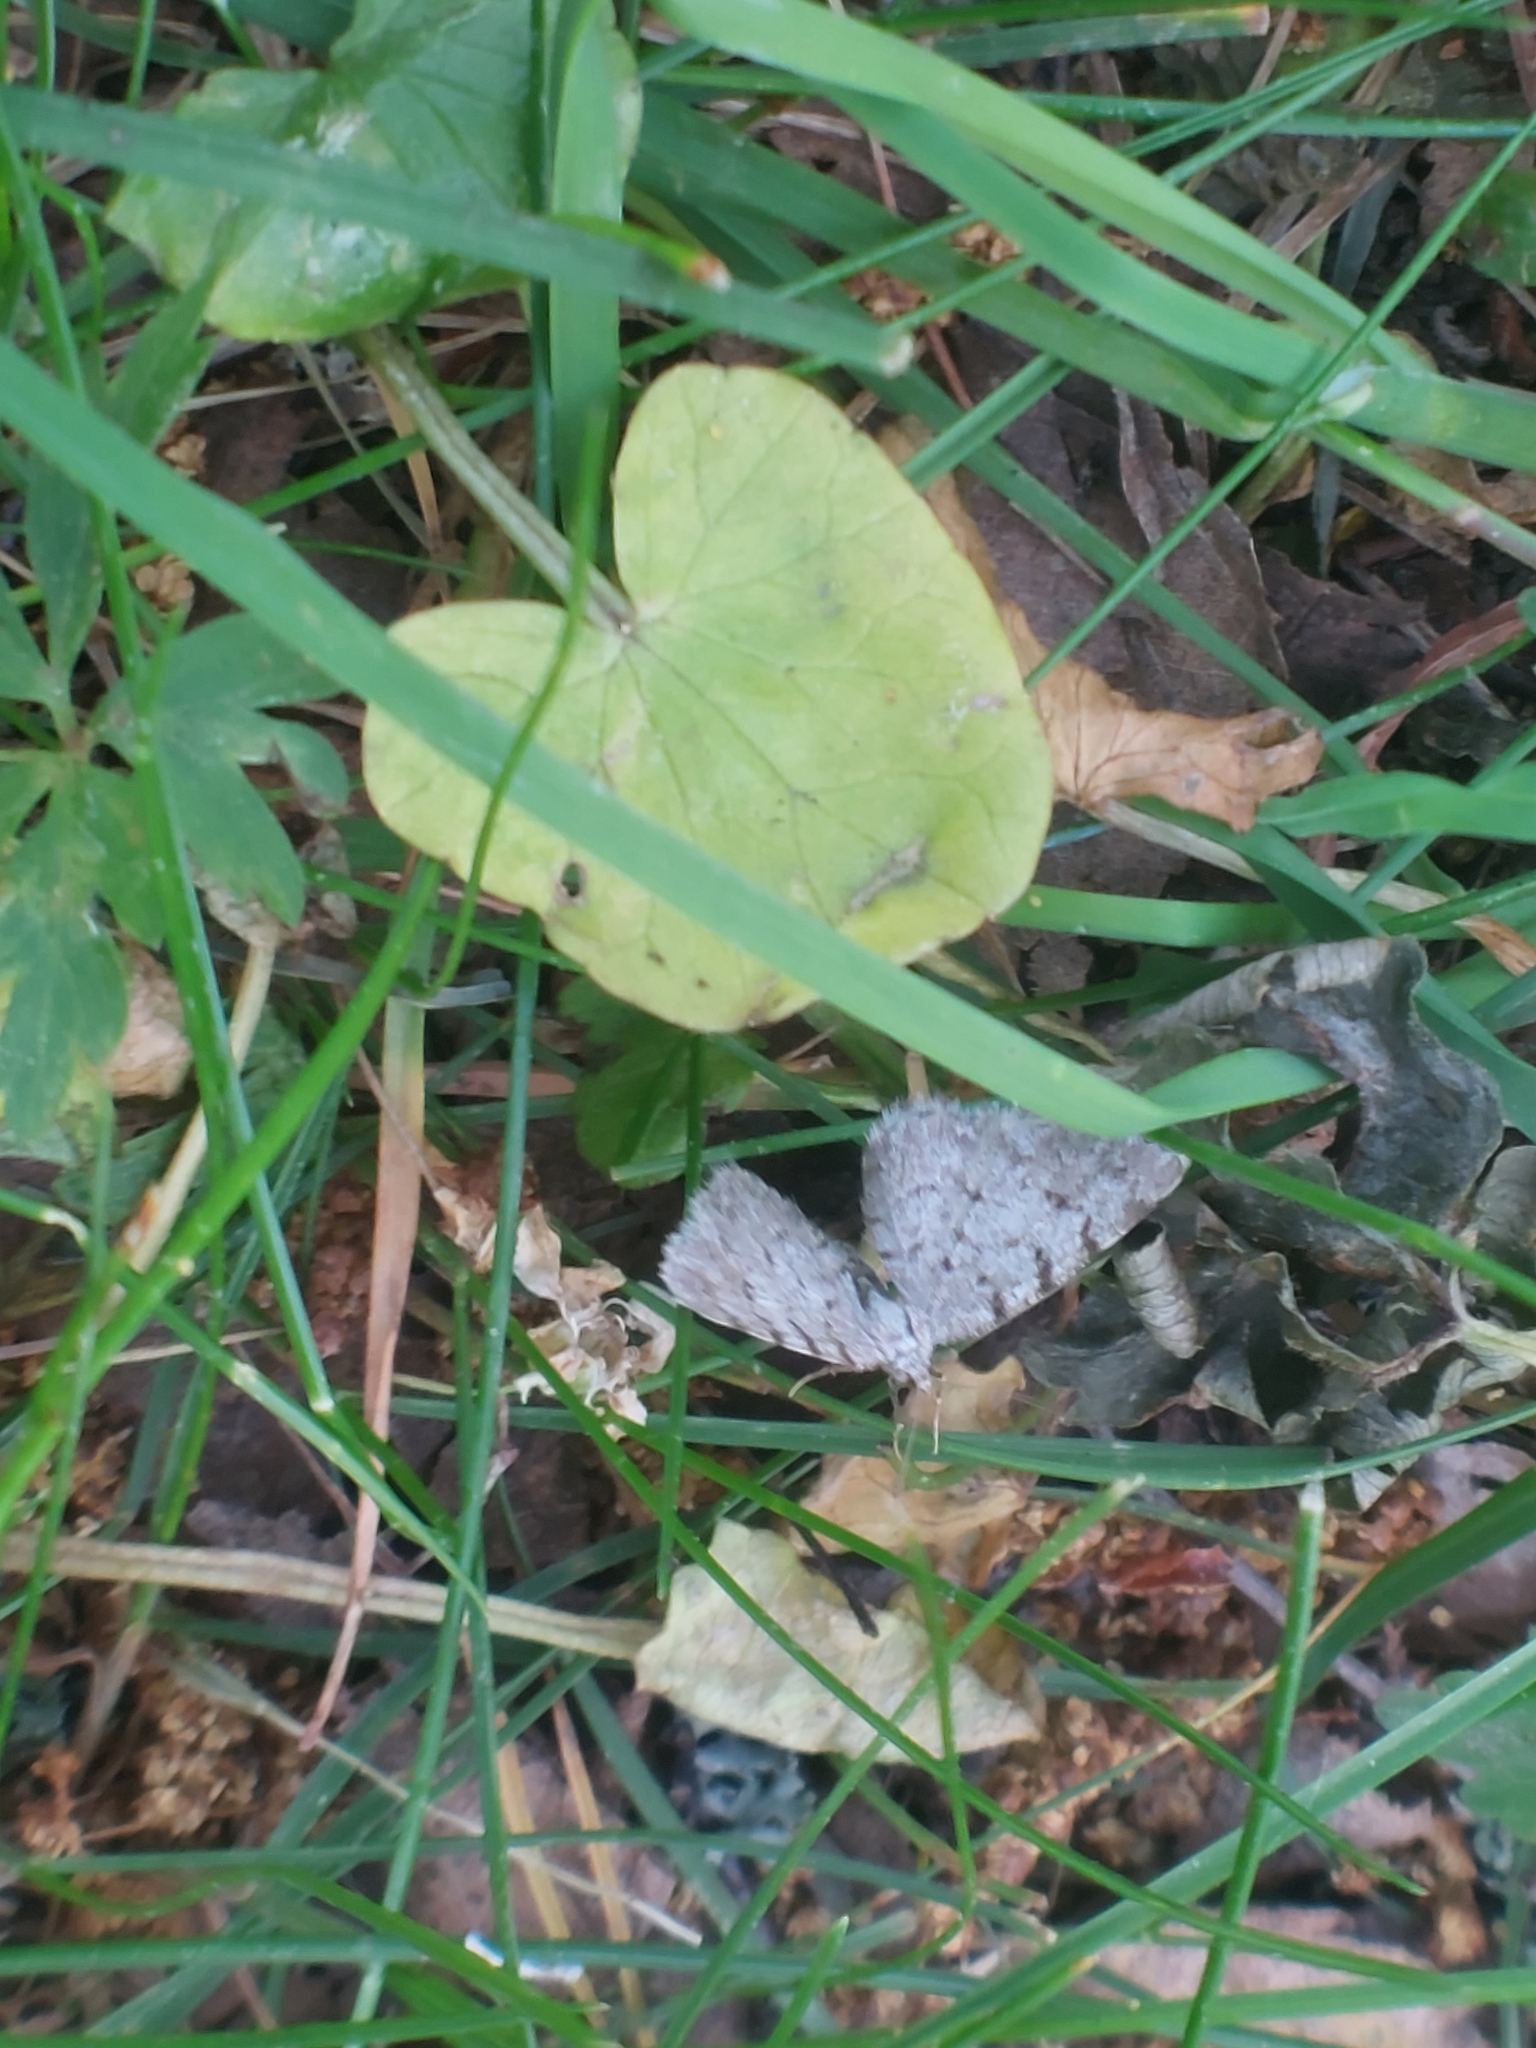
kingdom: Animalia
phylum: Arthropoda
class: Insecta
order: Lepidoptera
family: Geometridae
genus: Aethalura
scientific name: Aethalura punctulata
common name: Grey birch
